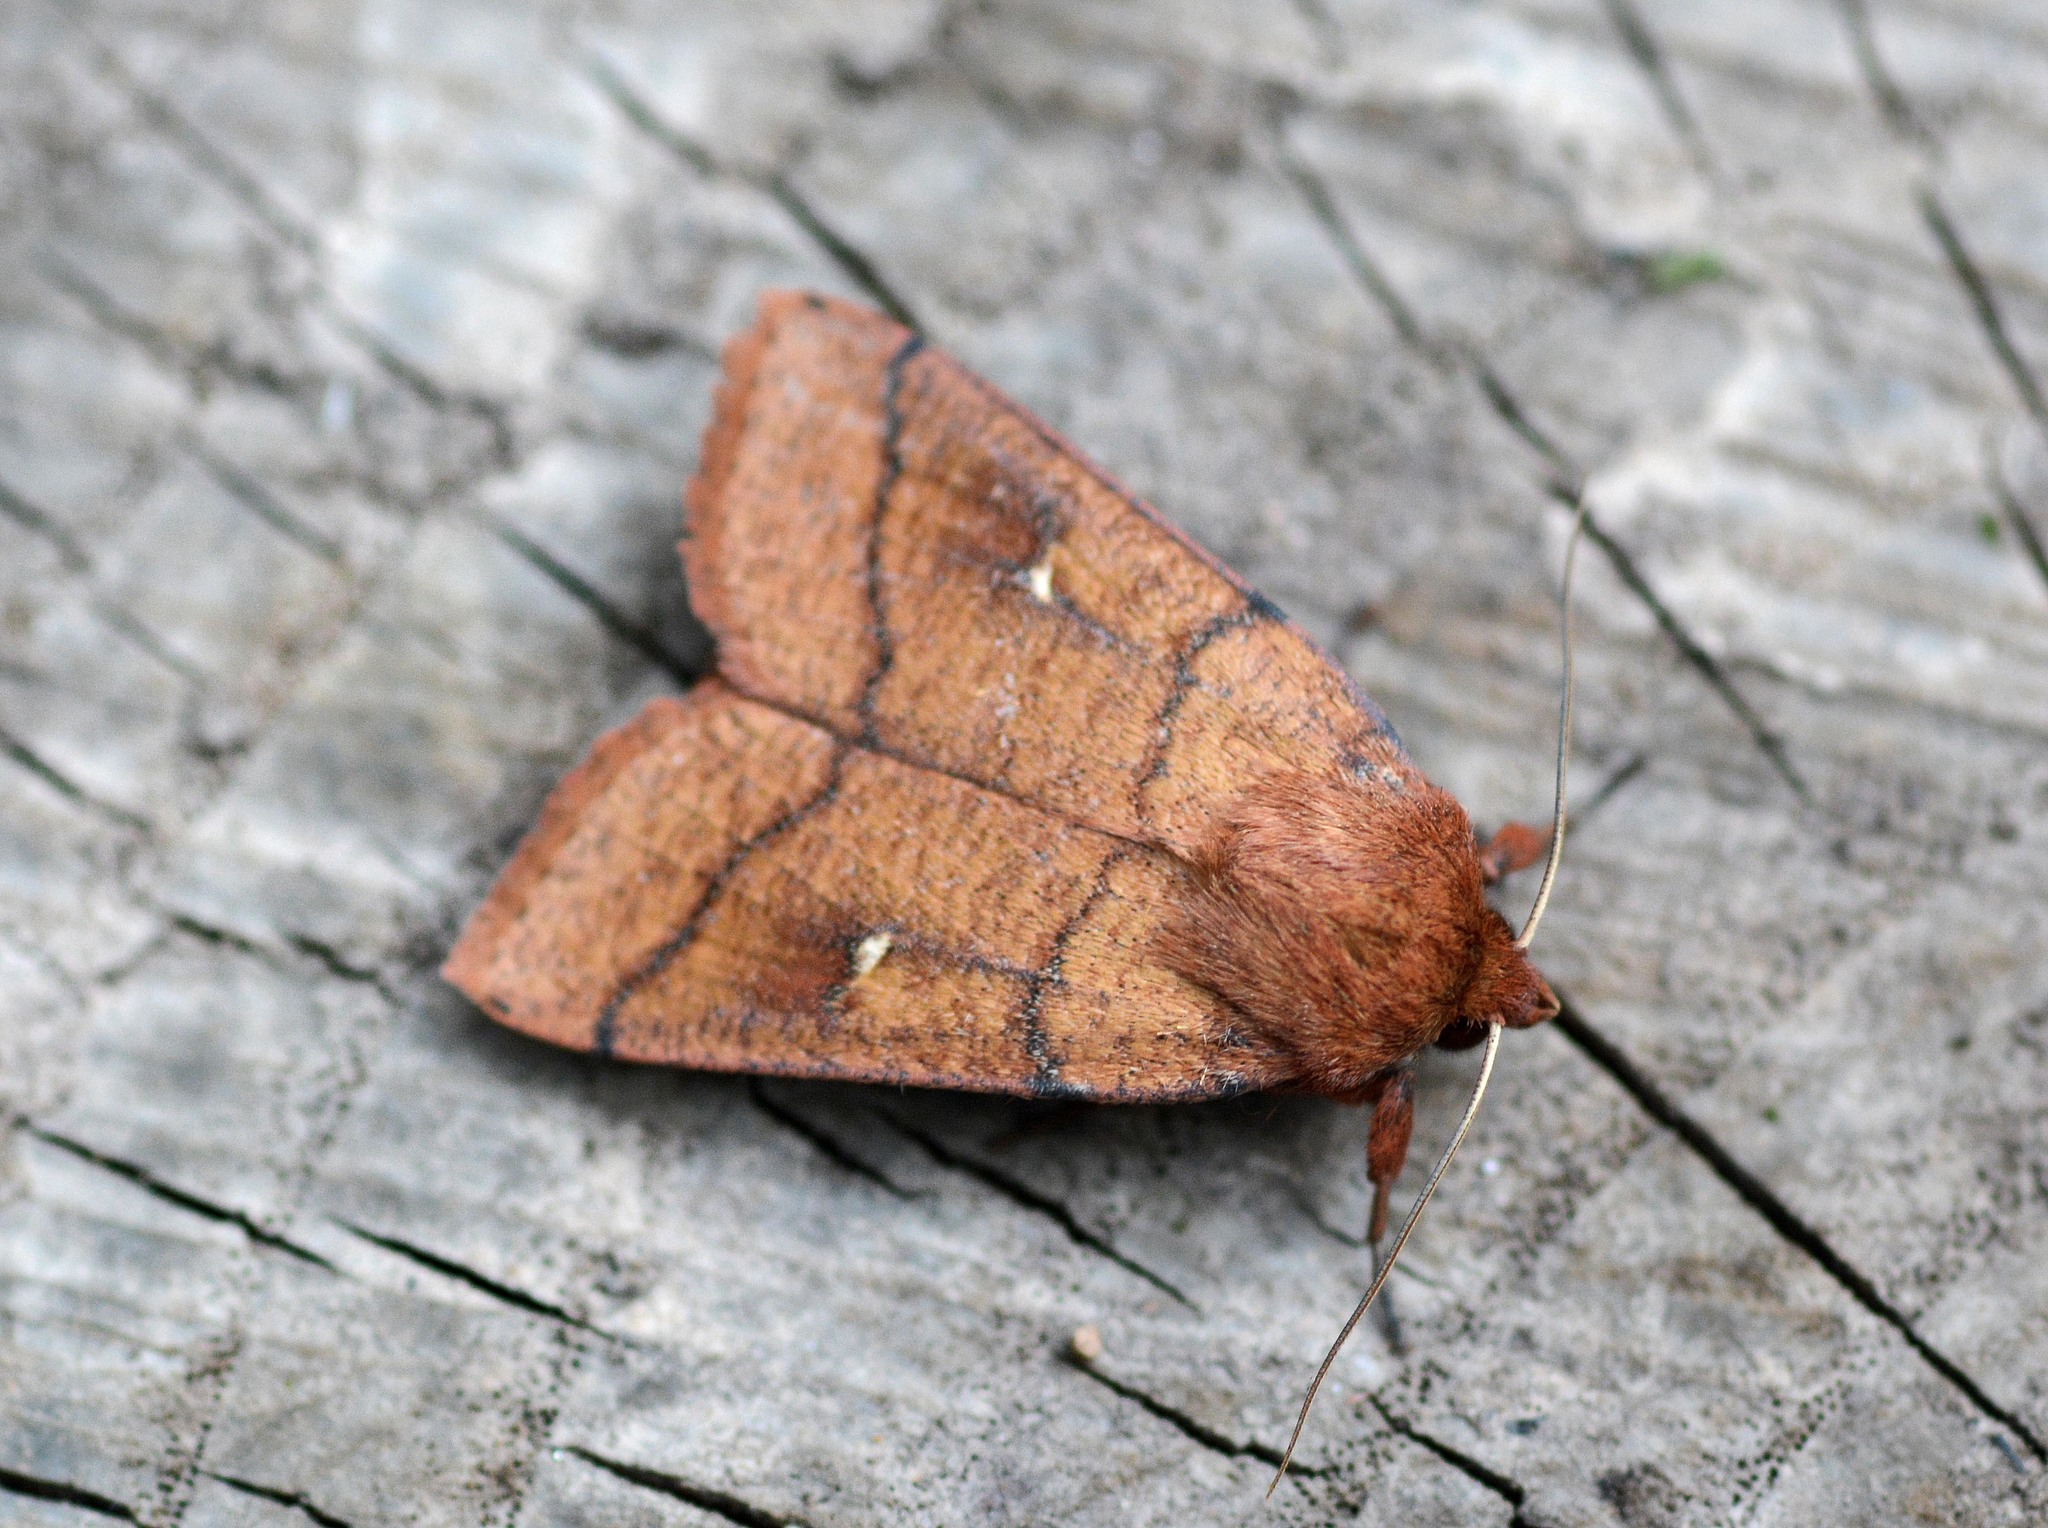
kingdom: Animalia
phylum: Arthropoda
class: Insecta
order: Lepidoptera
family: Noctuidae
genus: Mythimna
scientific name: Mythimna turca
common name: Double line
